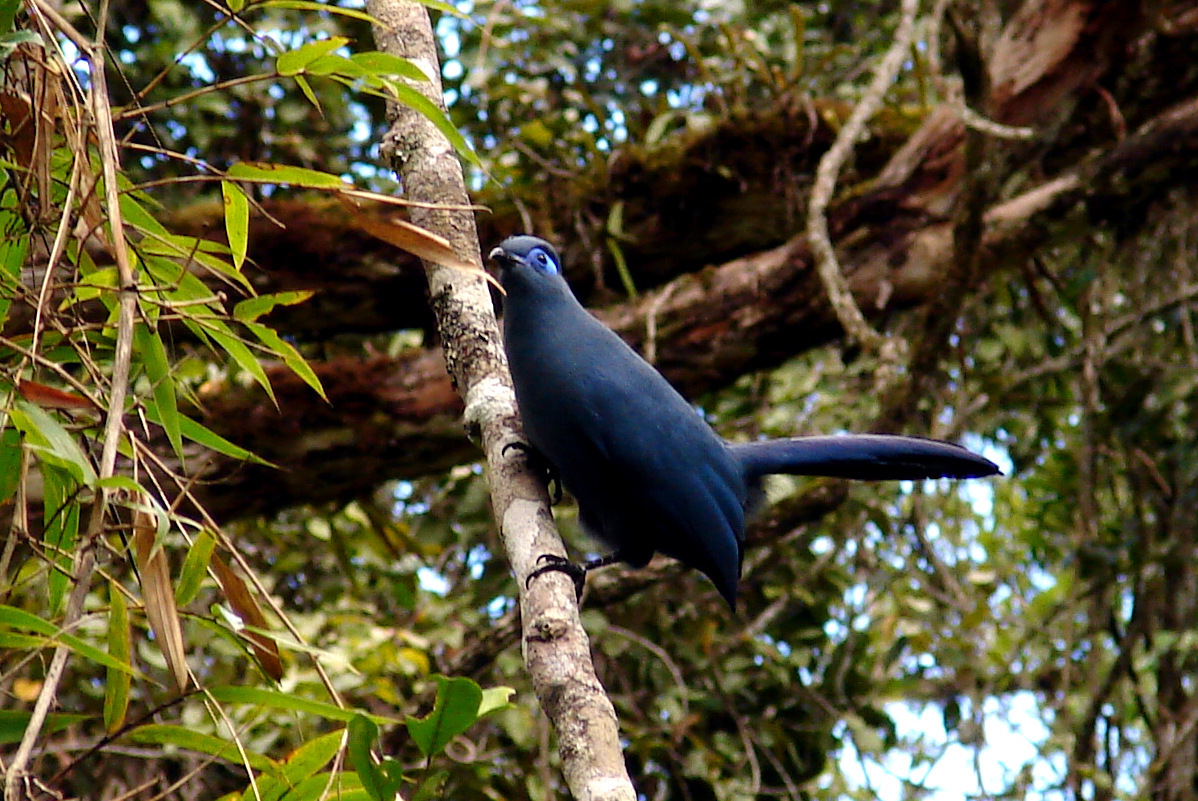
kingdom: Animalia
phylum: Chordata
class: Aves
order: Cuculiformes
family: Cuculidae
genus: Coua
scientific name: Coua caerulea
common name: Blue coua
